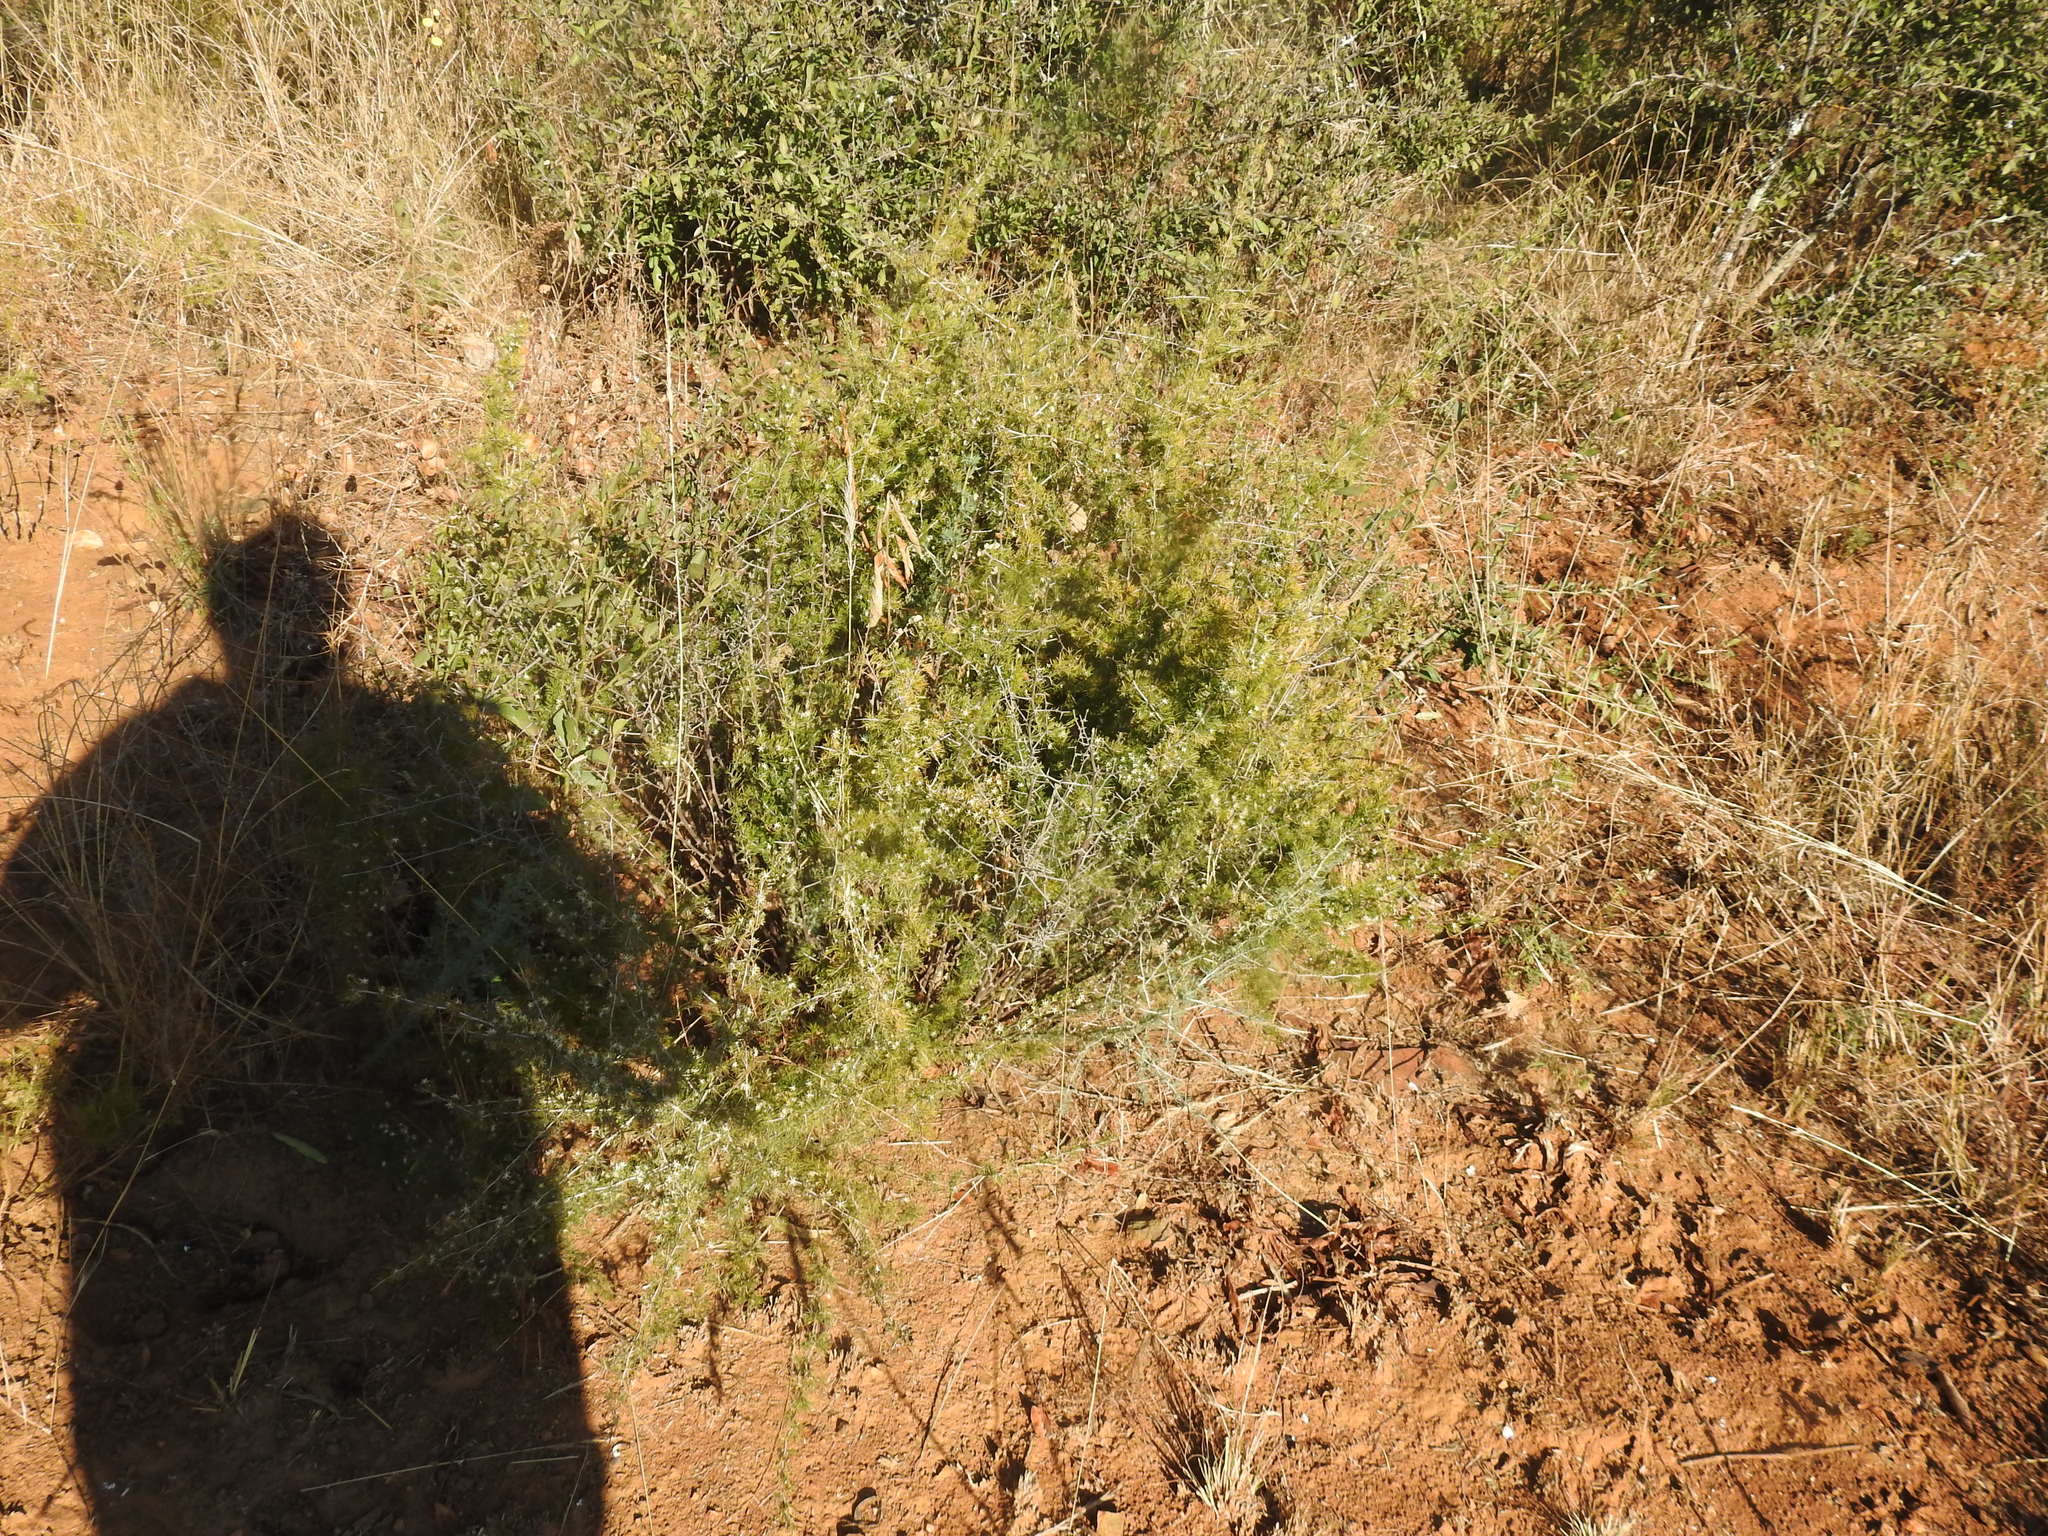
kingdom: Plantae
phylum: Tracheophyta
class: Liliopsida
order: Asparagales
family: Asparagaceae
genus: Asparagus
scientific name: Asparagus laricinus
